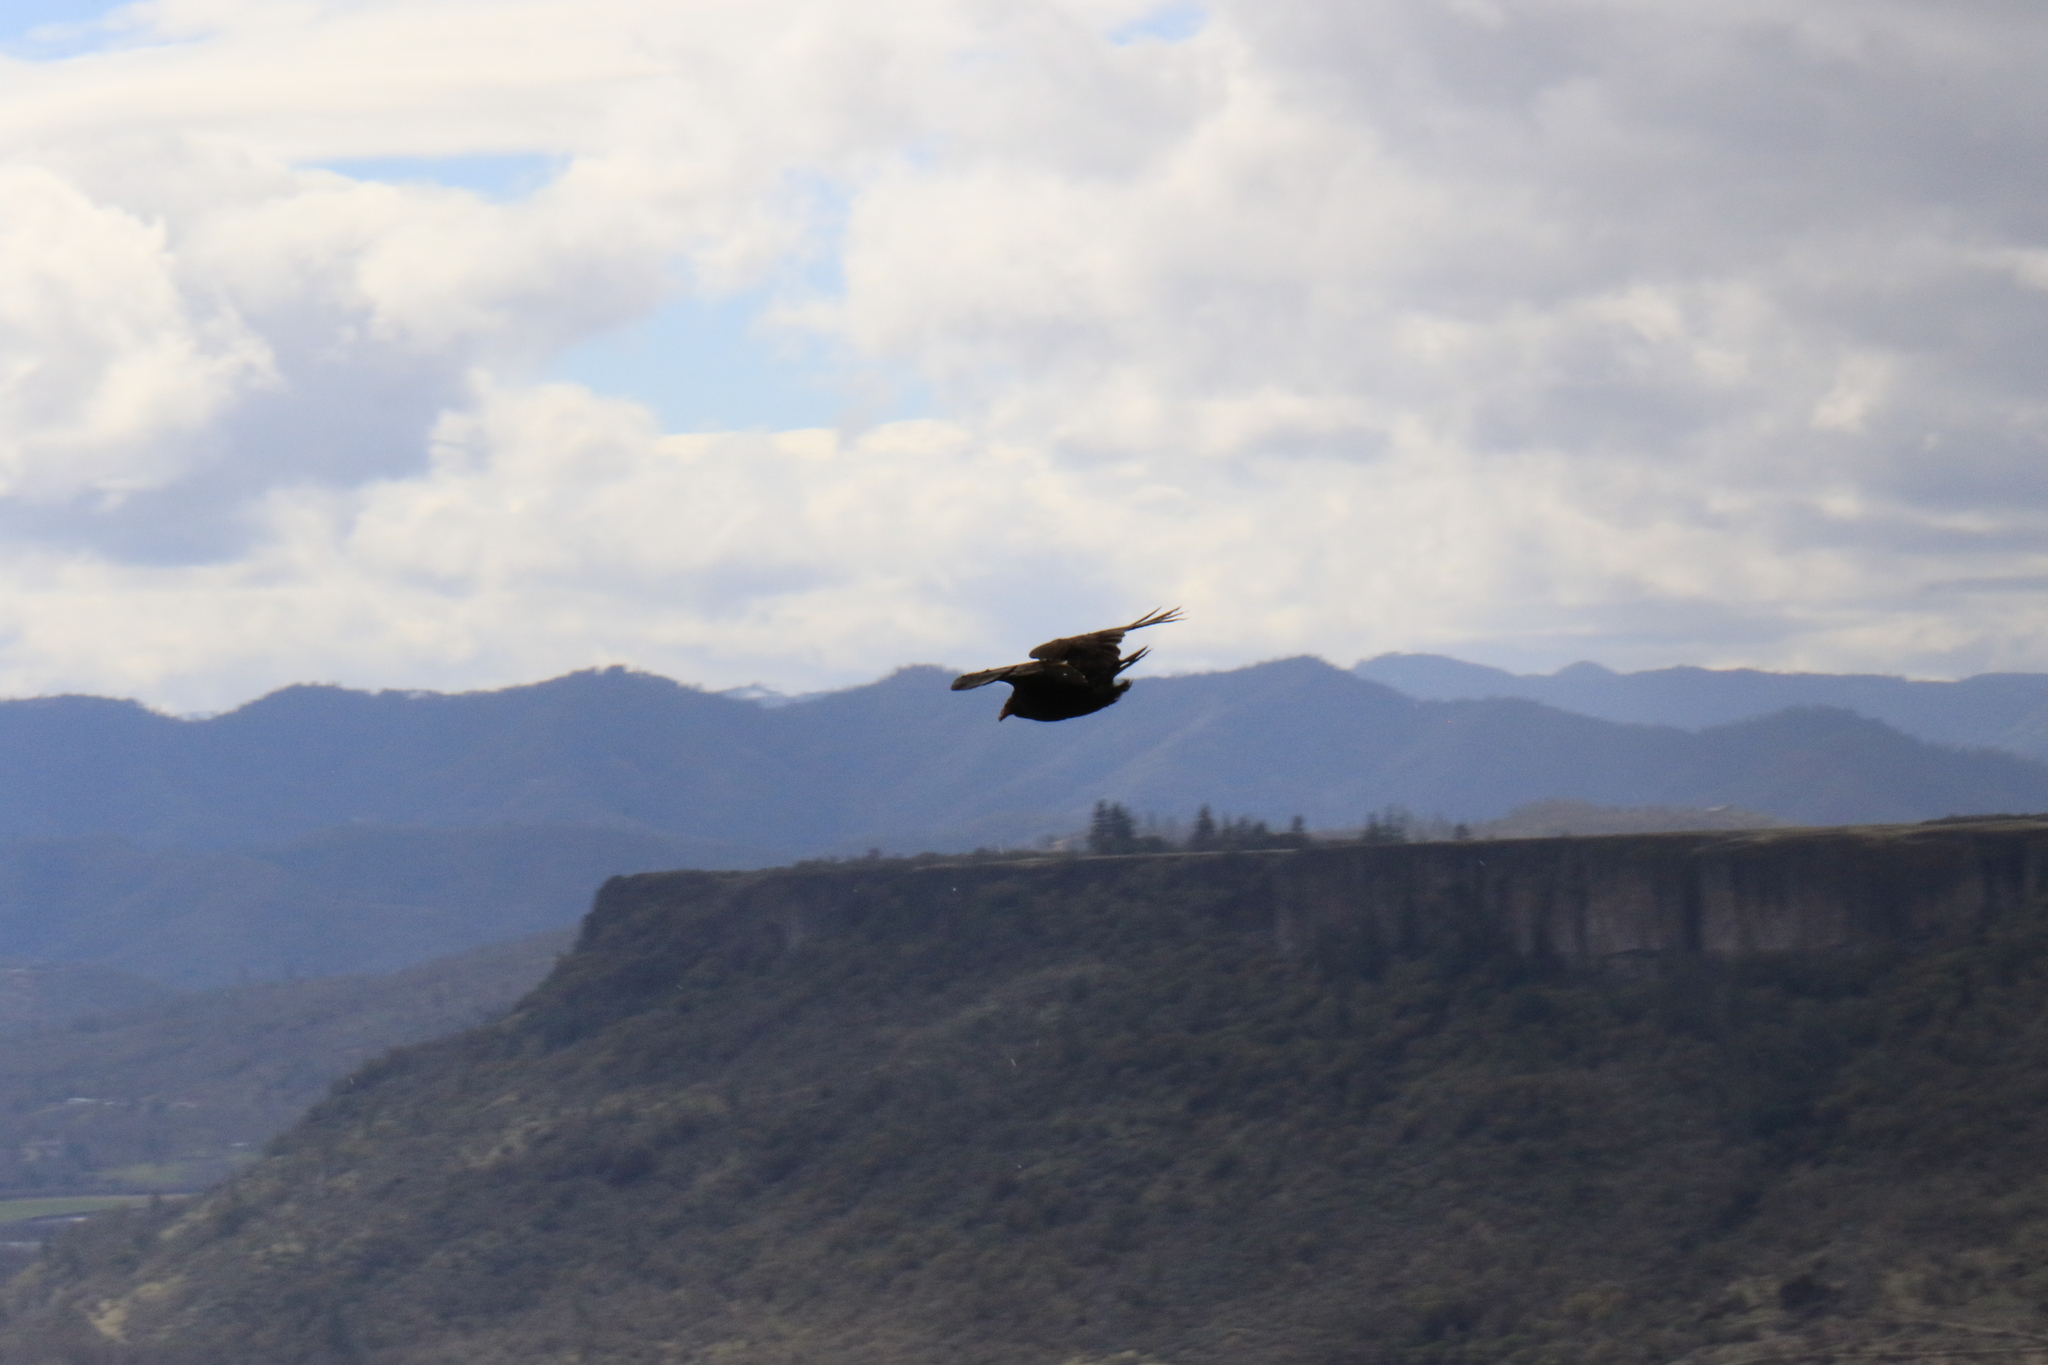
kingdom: Animalia
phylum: Chordata
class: Aves
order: Accipitriformes
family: Cathartidae
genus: Cathartes
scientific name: Cathartes aura
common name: Turkey vulture
